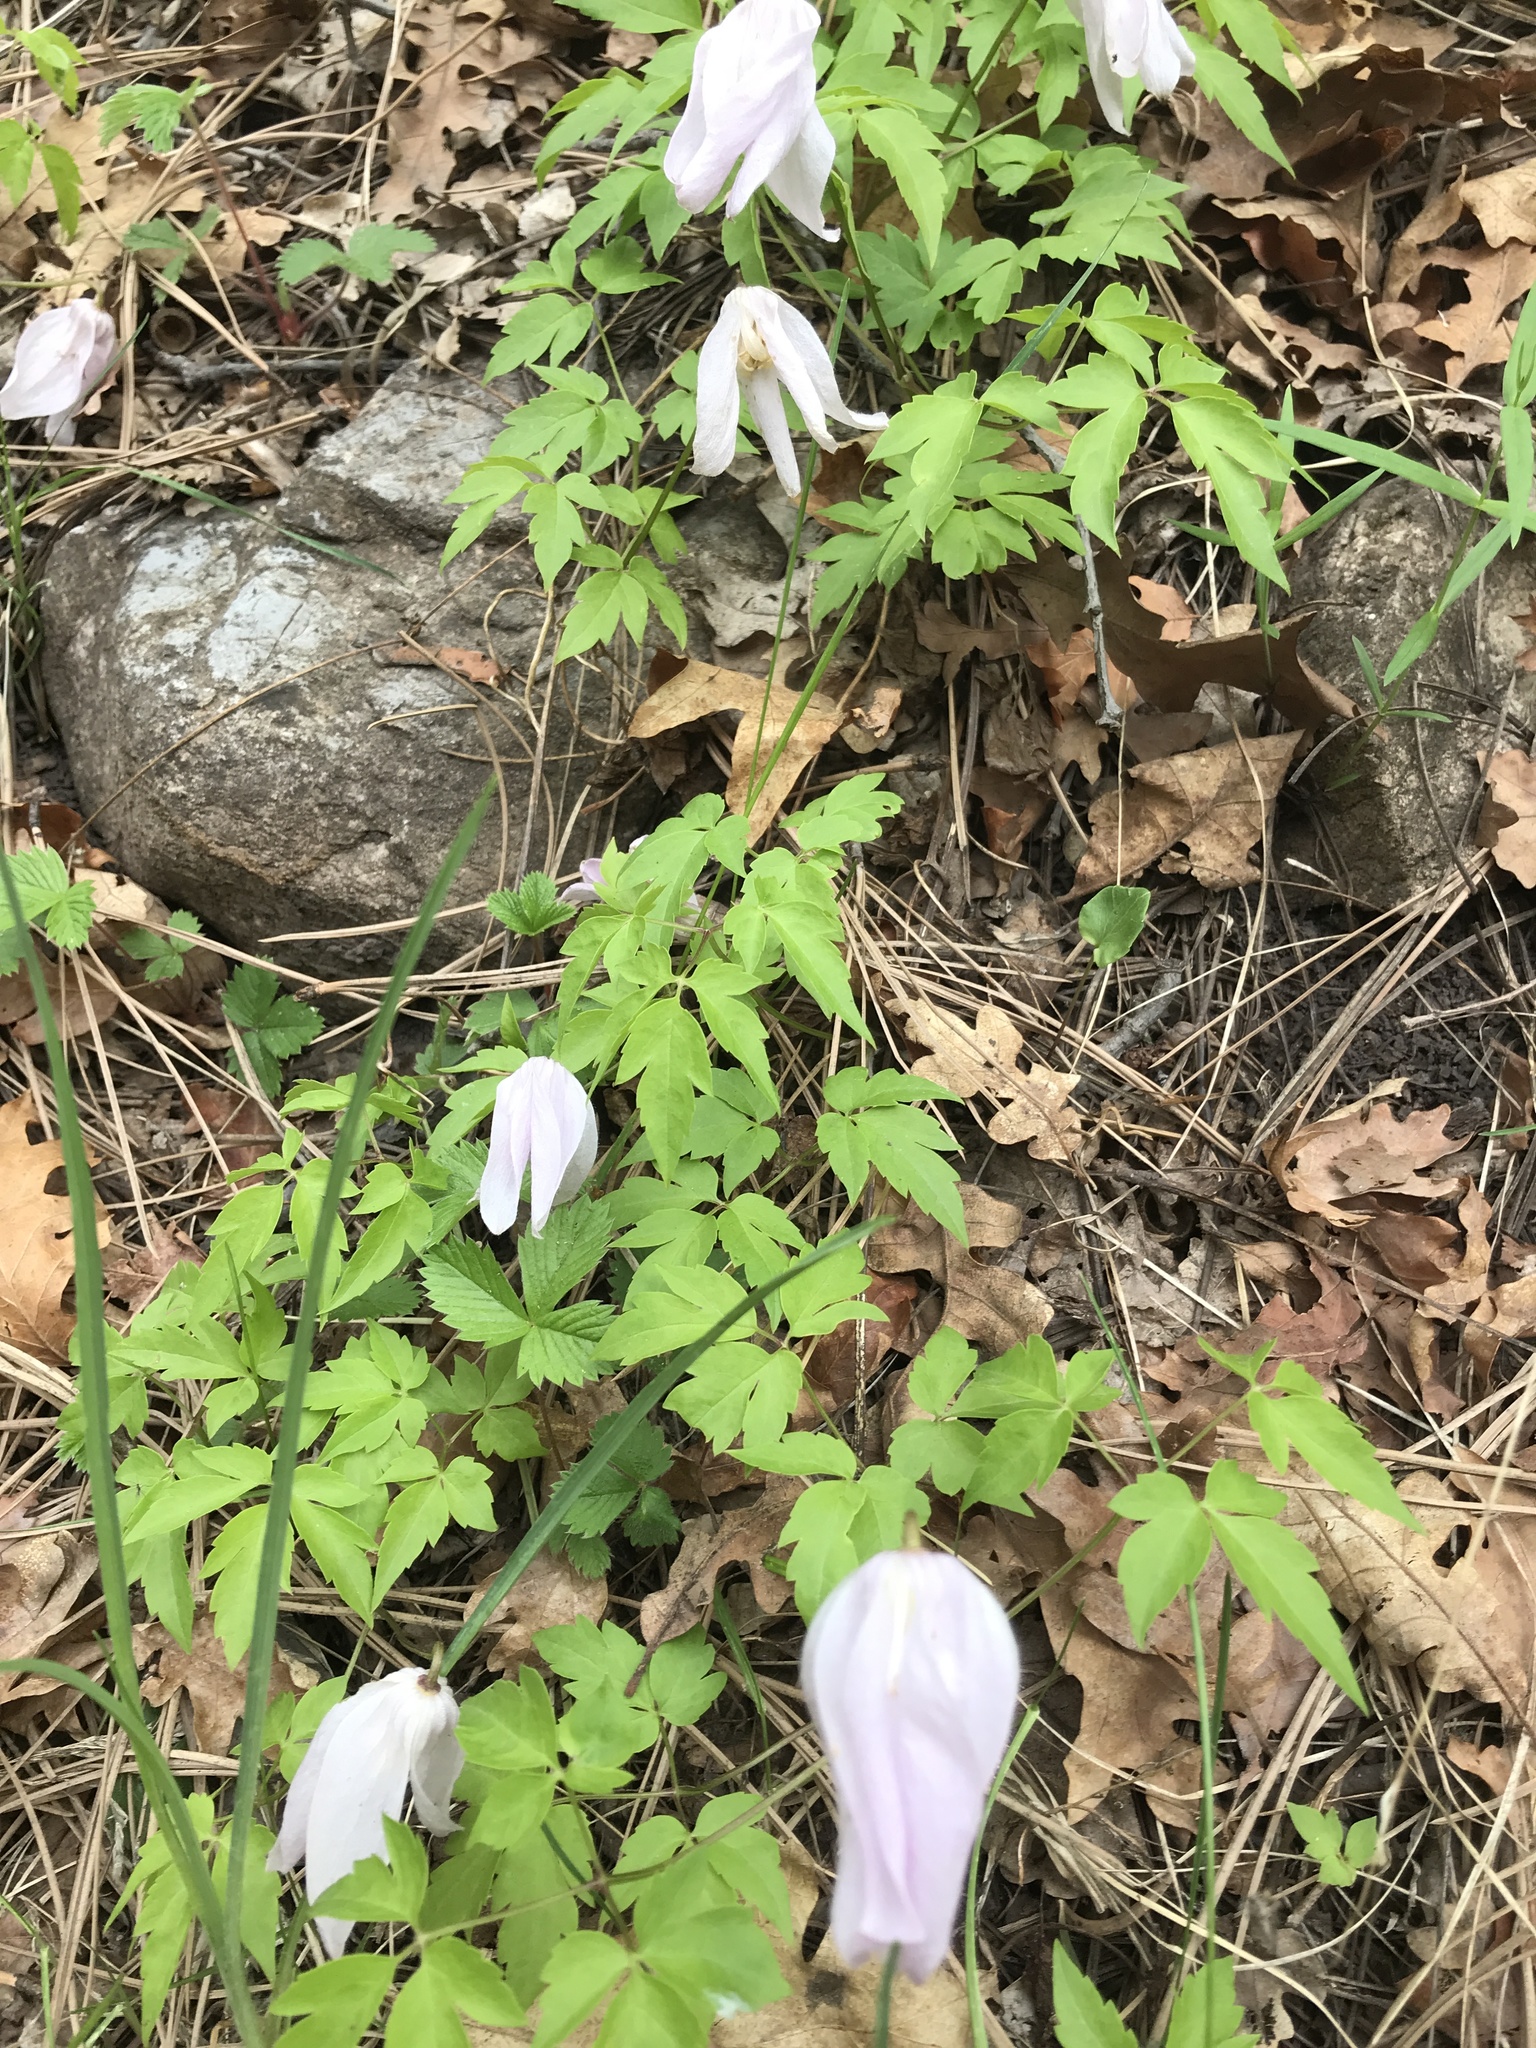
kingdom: Plantae
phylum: Tracheophyta
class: Magnoliopsida
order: Ranunculales
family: Ranunculaceae
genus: Clematis
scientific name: Clematis columbiana
